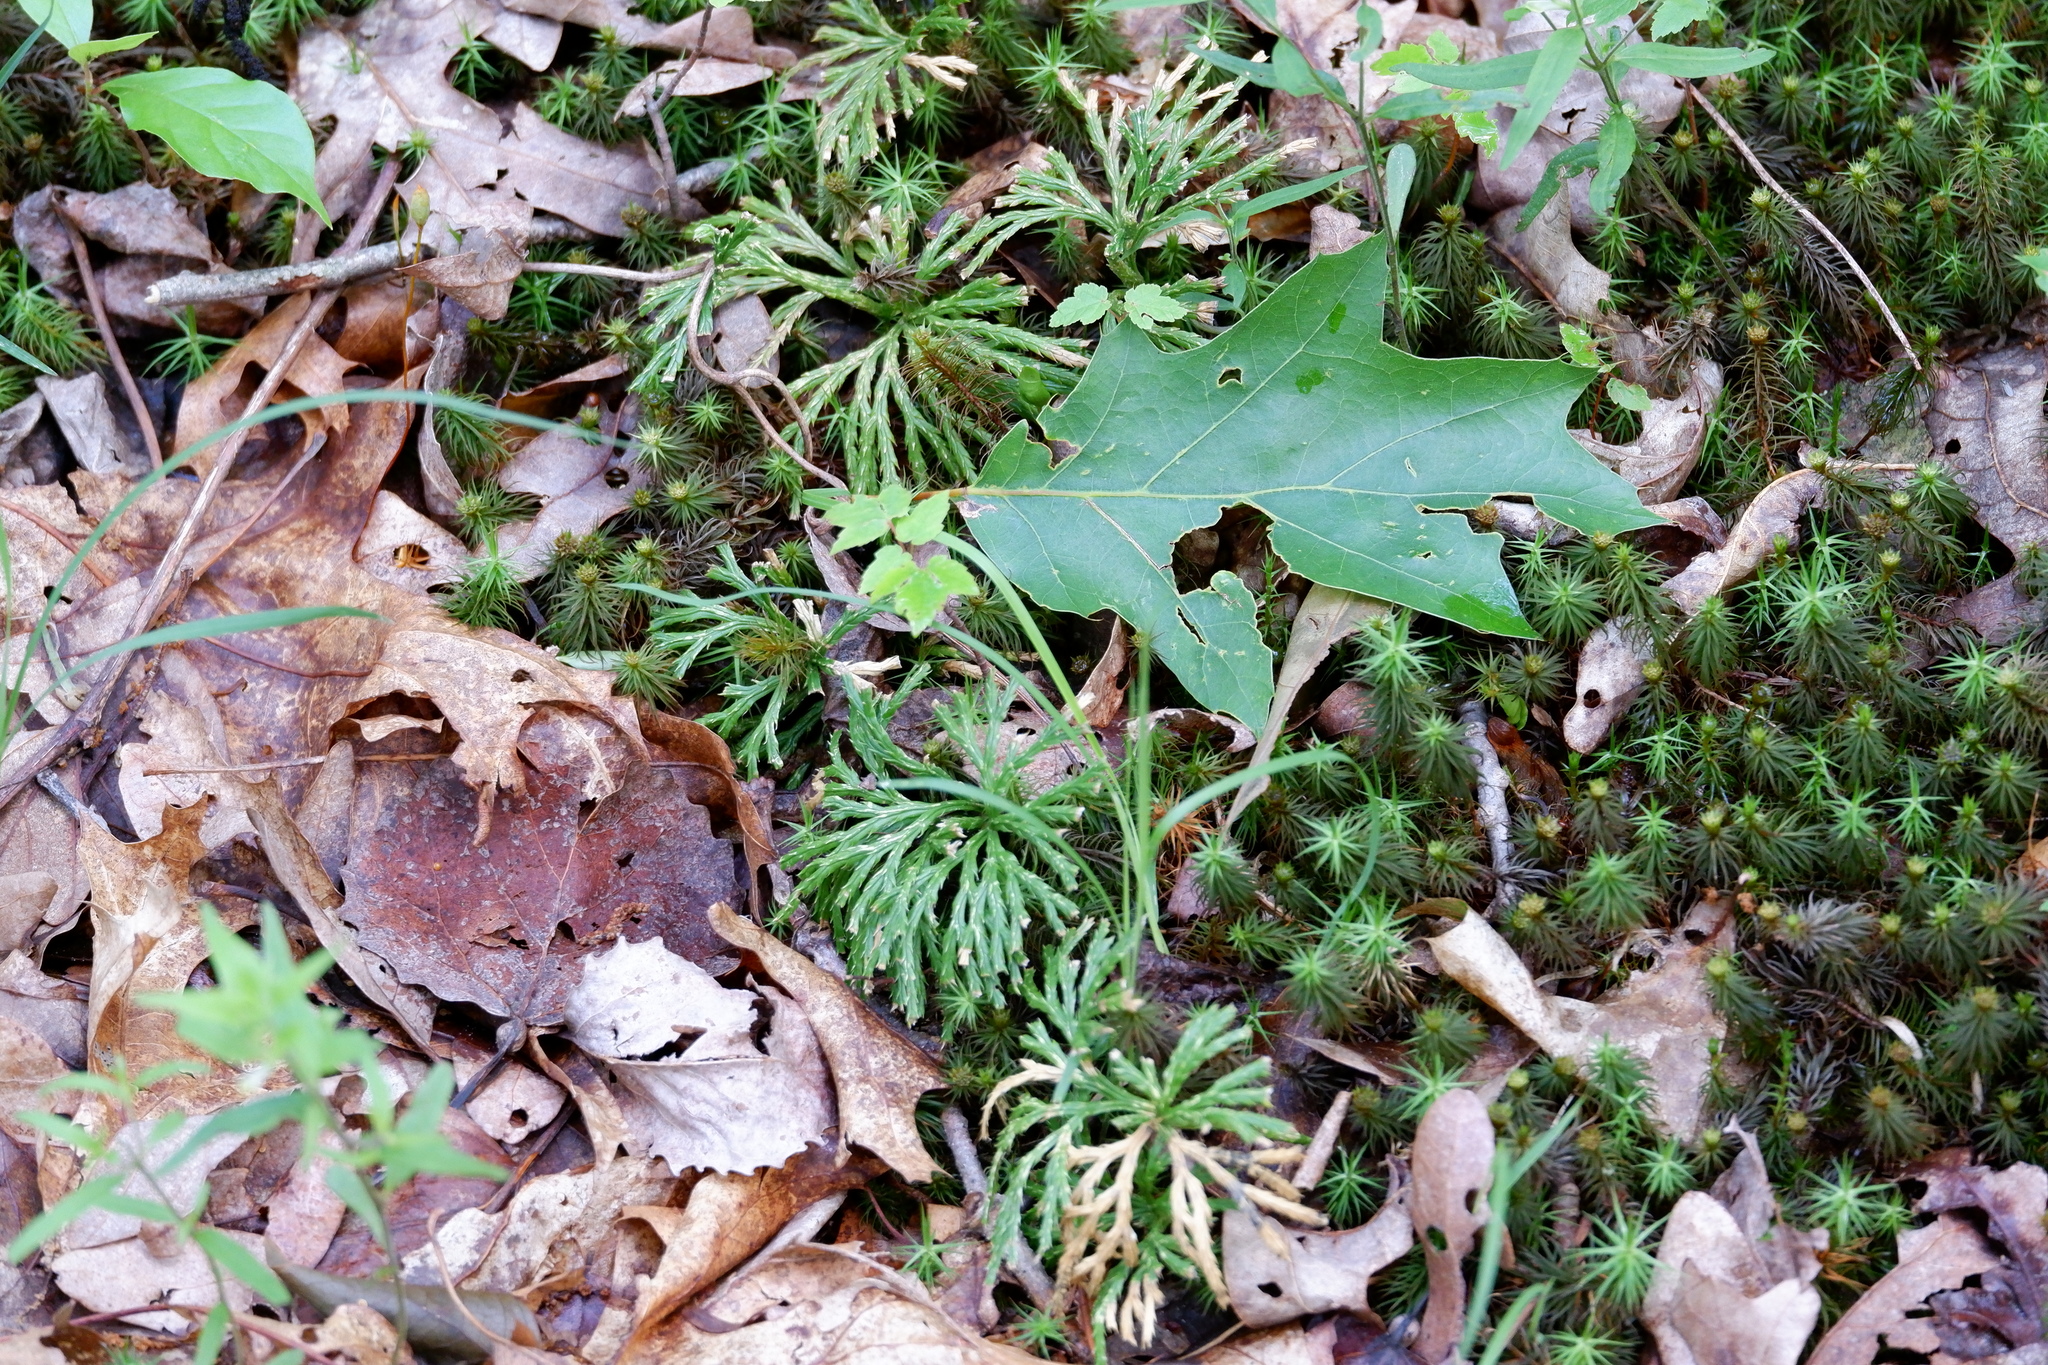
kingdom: Plantae
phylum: Tracheophyta
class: Lycopodiopsida
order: Lycopodiales
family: Lycopodiaceae
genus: Diphasiastrum
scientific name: Diphasiastrum digitatum
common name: Southern running-pine
